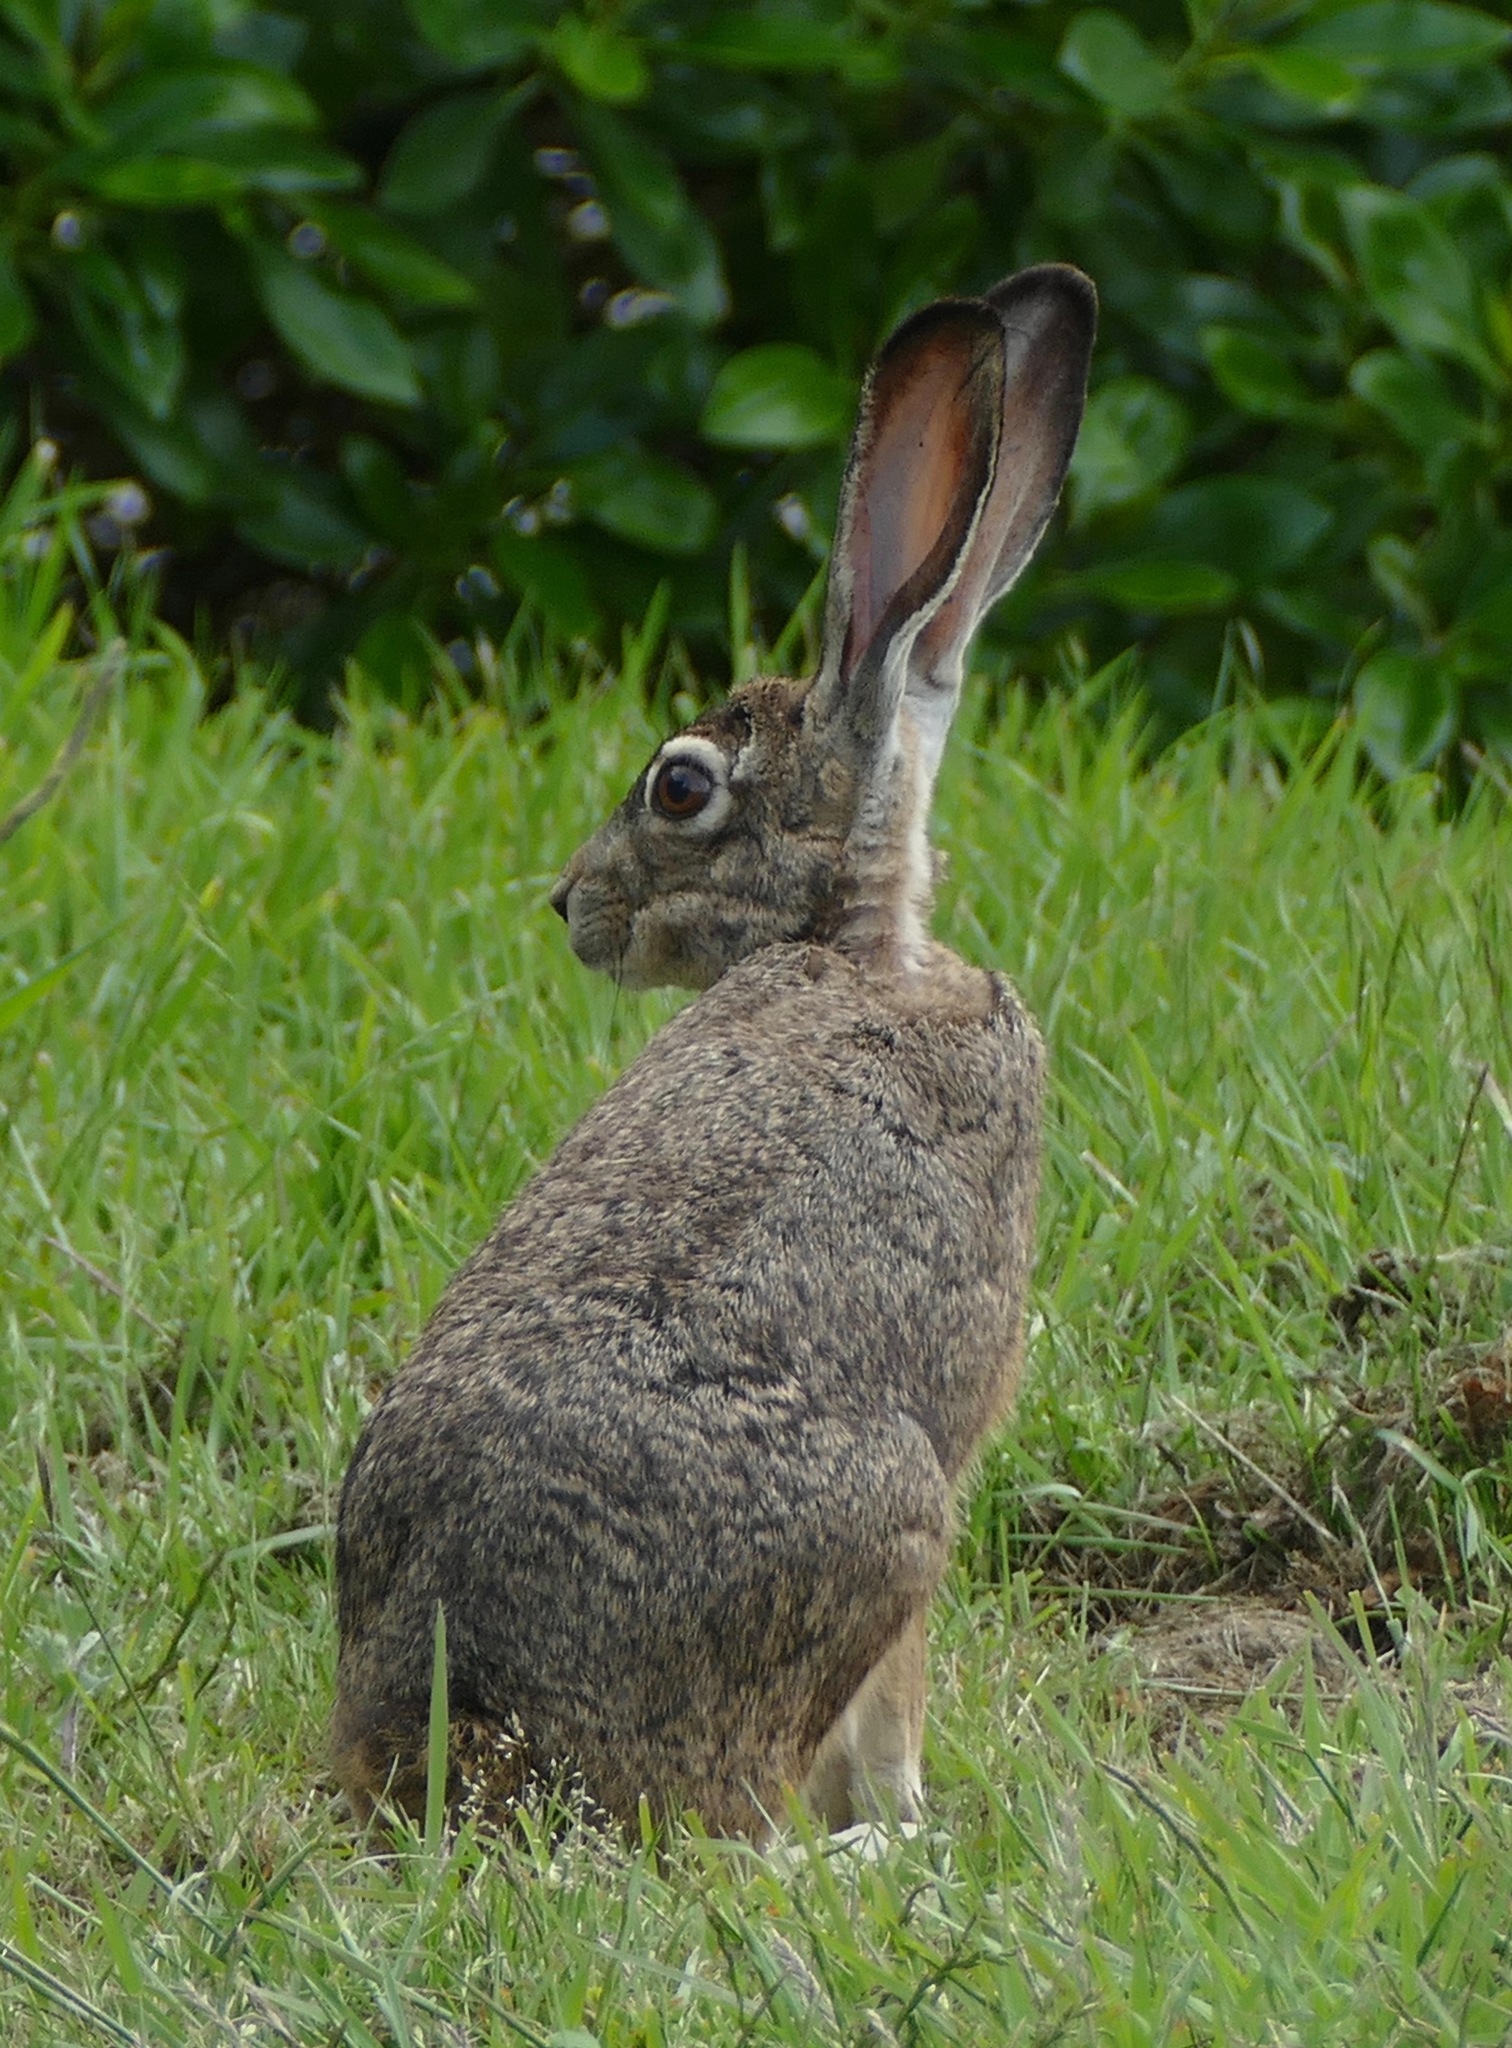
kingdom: Animalia
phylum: Chordata
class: Mammalia
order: Lagomorpha
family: Leporidae
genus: Lepus
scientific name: Lepus californicus
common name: Black-tailed jackrabbit
